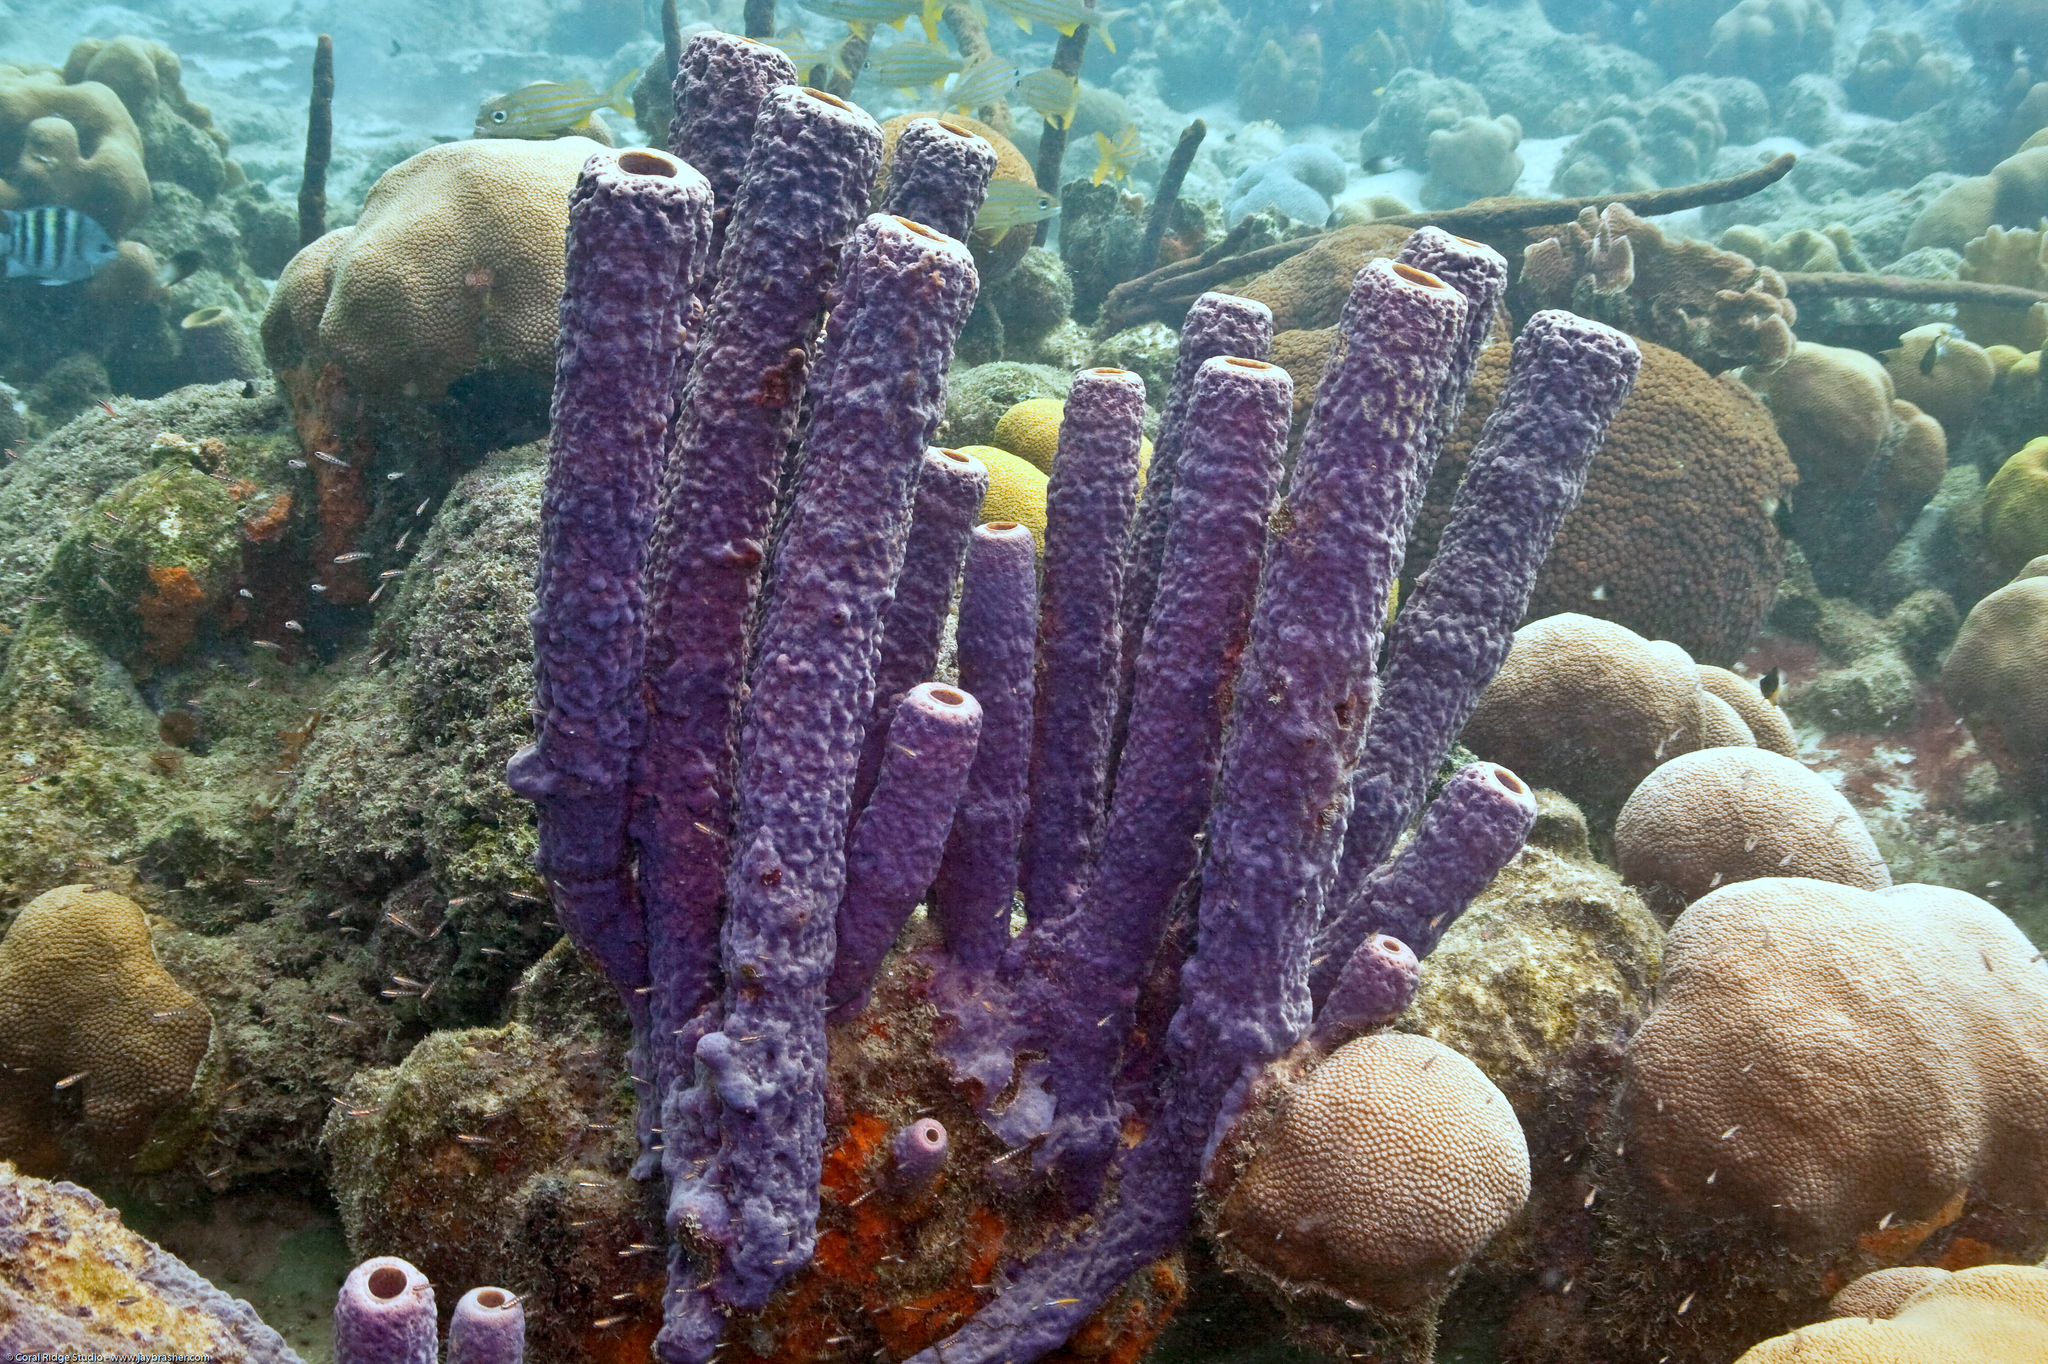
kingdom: Animalia
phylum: Porifera
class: Demospongiae
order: Verongiida
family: Aplysinidae
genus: Aplysina
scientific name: Aplysina archeri
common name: Stove-pipe sponge
